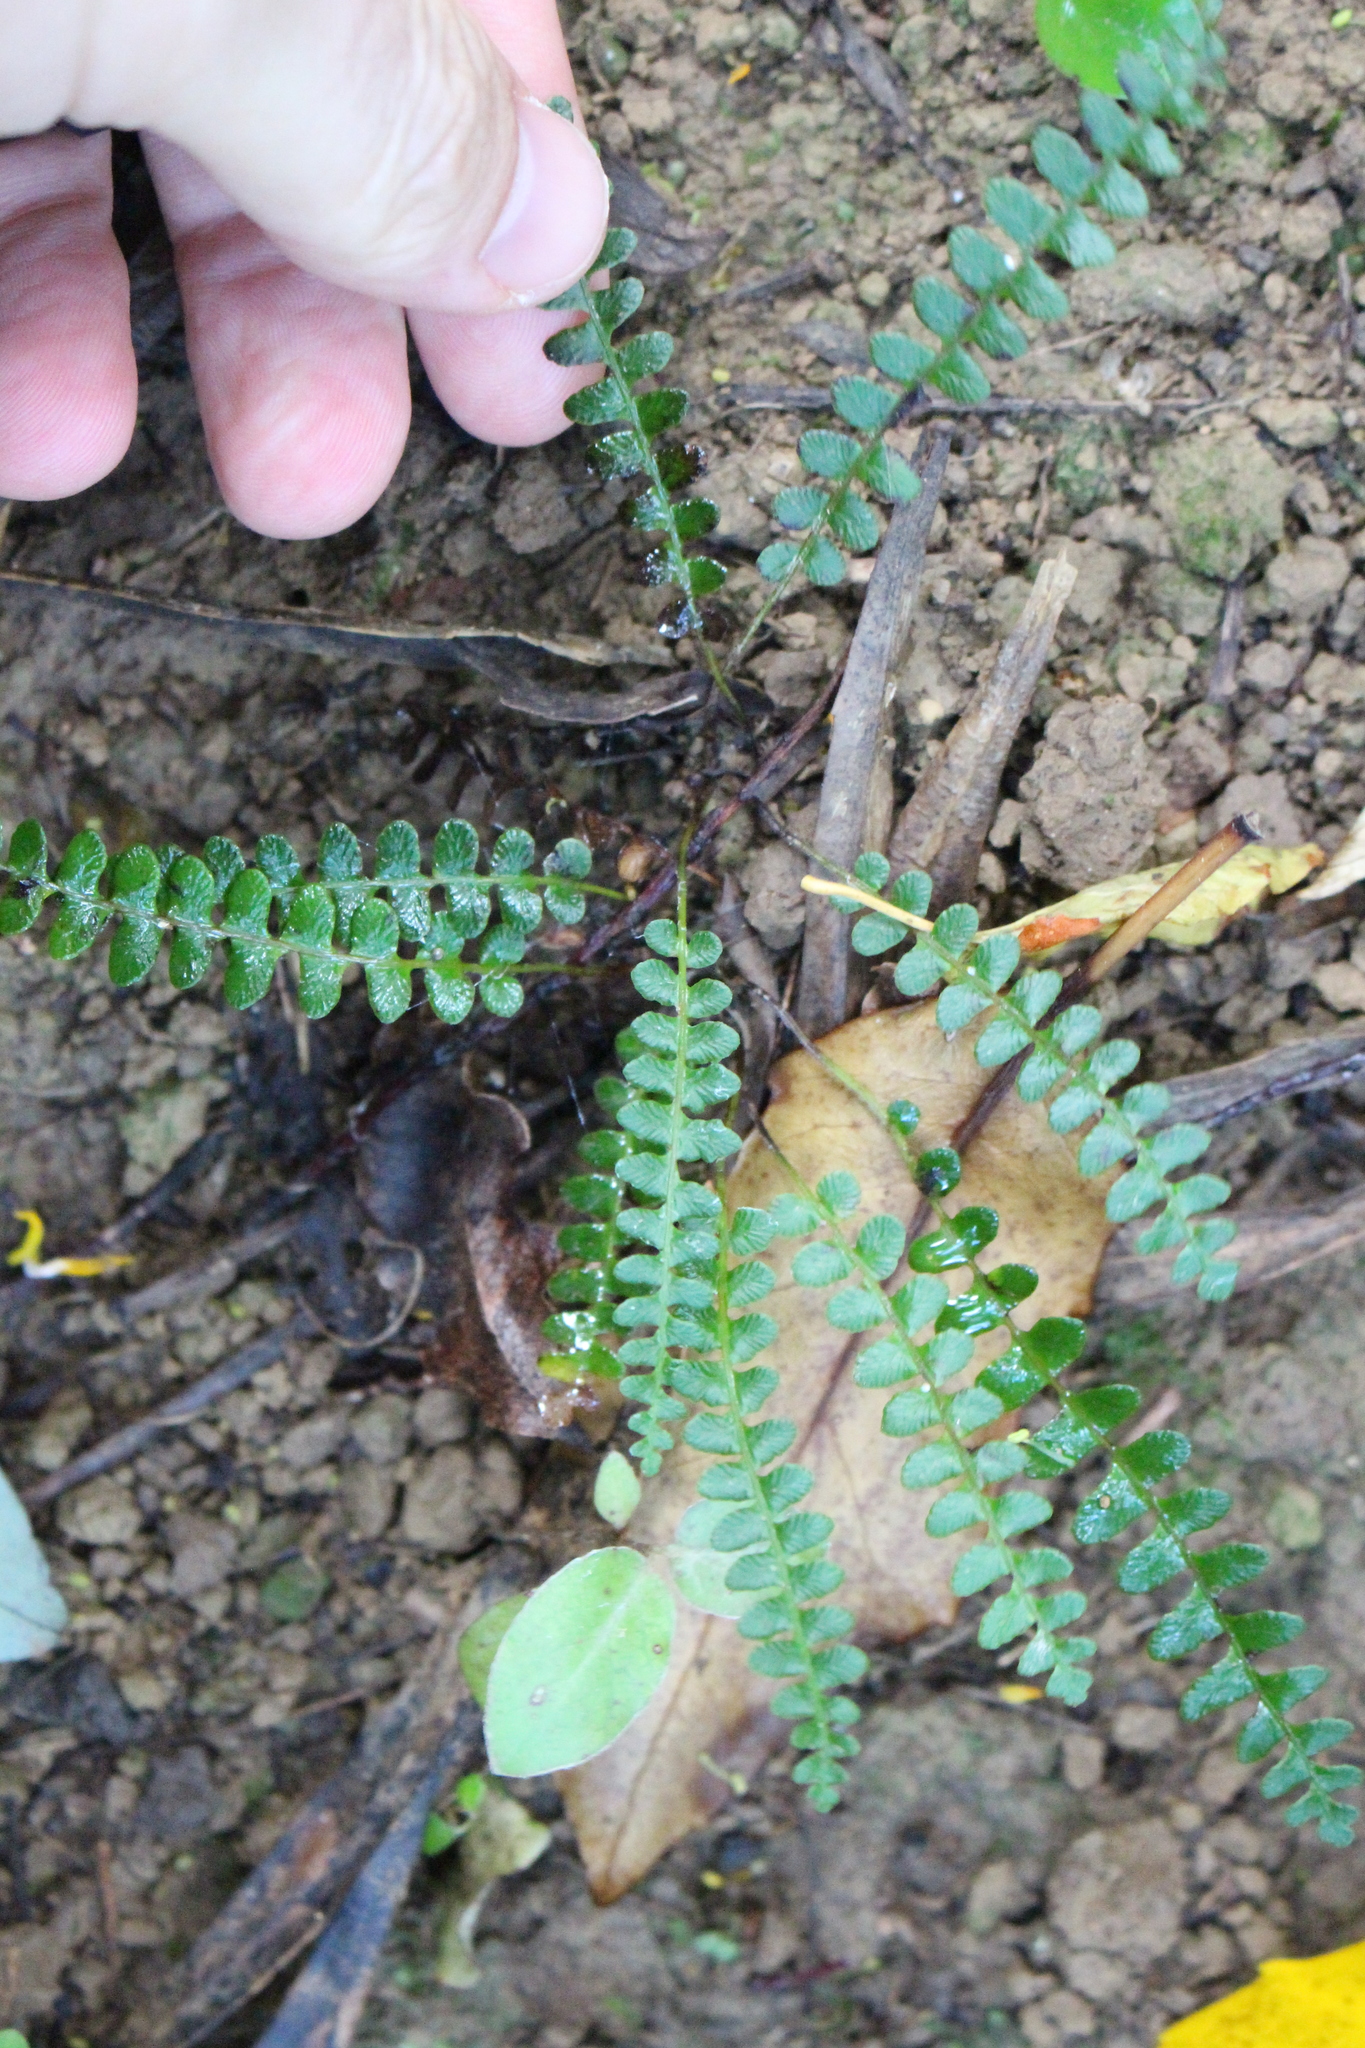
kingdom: Plantae
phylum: Tracheophyta
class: Polypodiopsida
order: Polypodiales
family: Blechnaceae
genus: Austroblechnum
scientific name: Austroblechnum penna-marina
